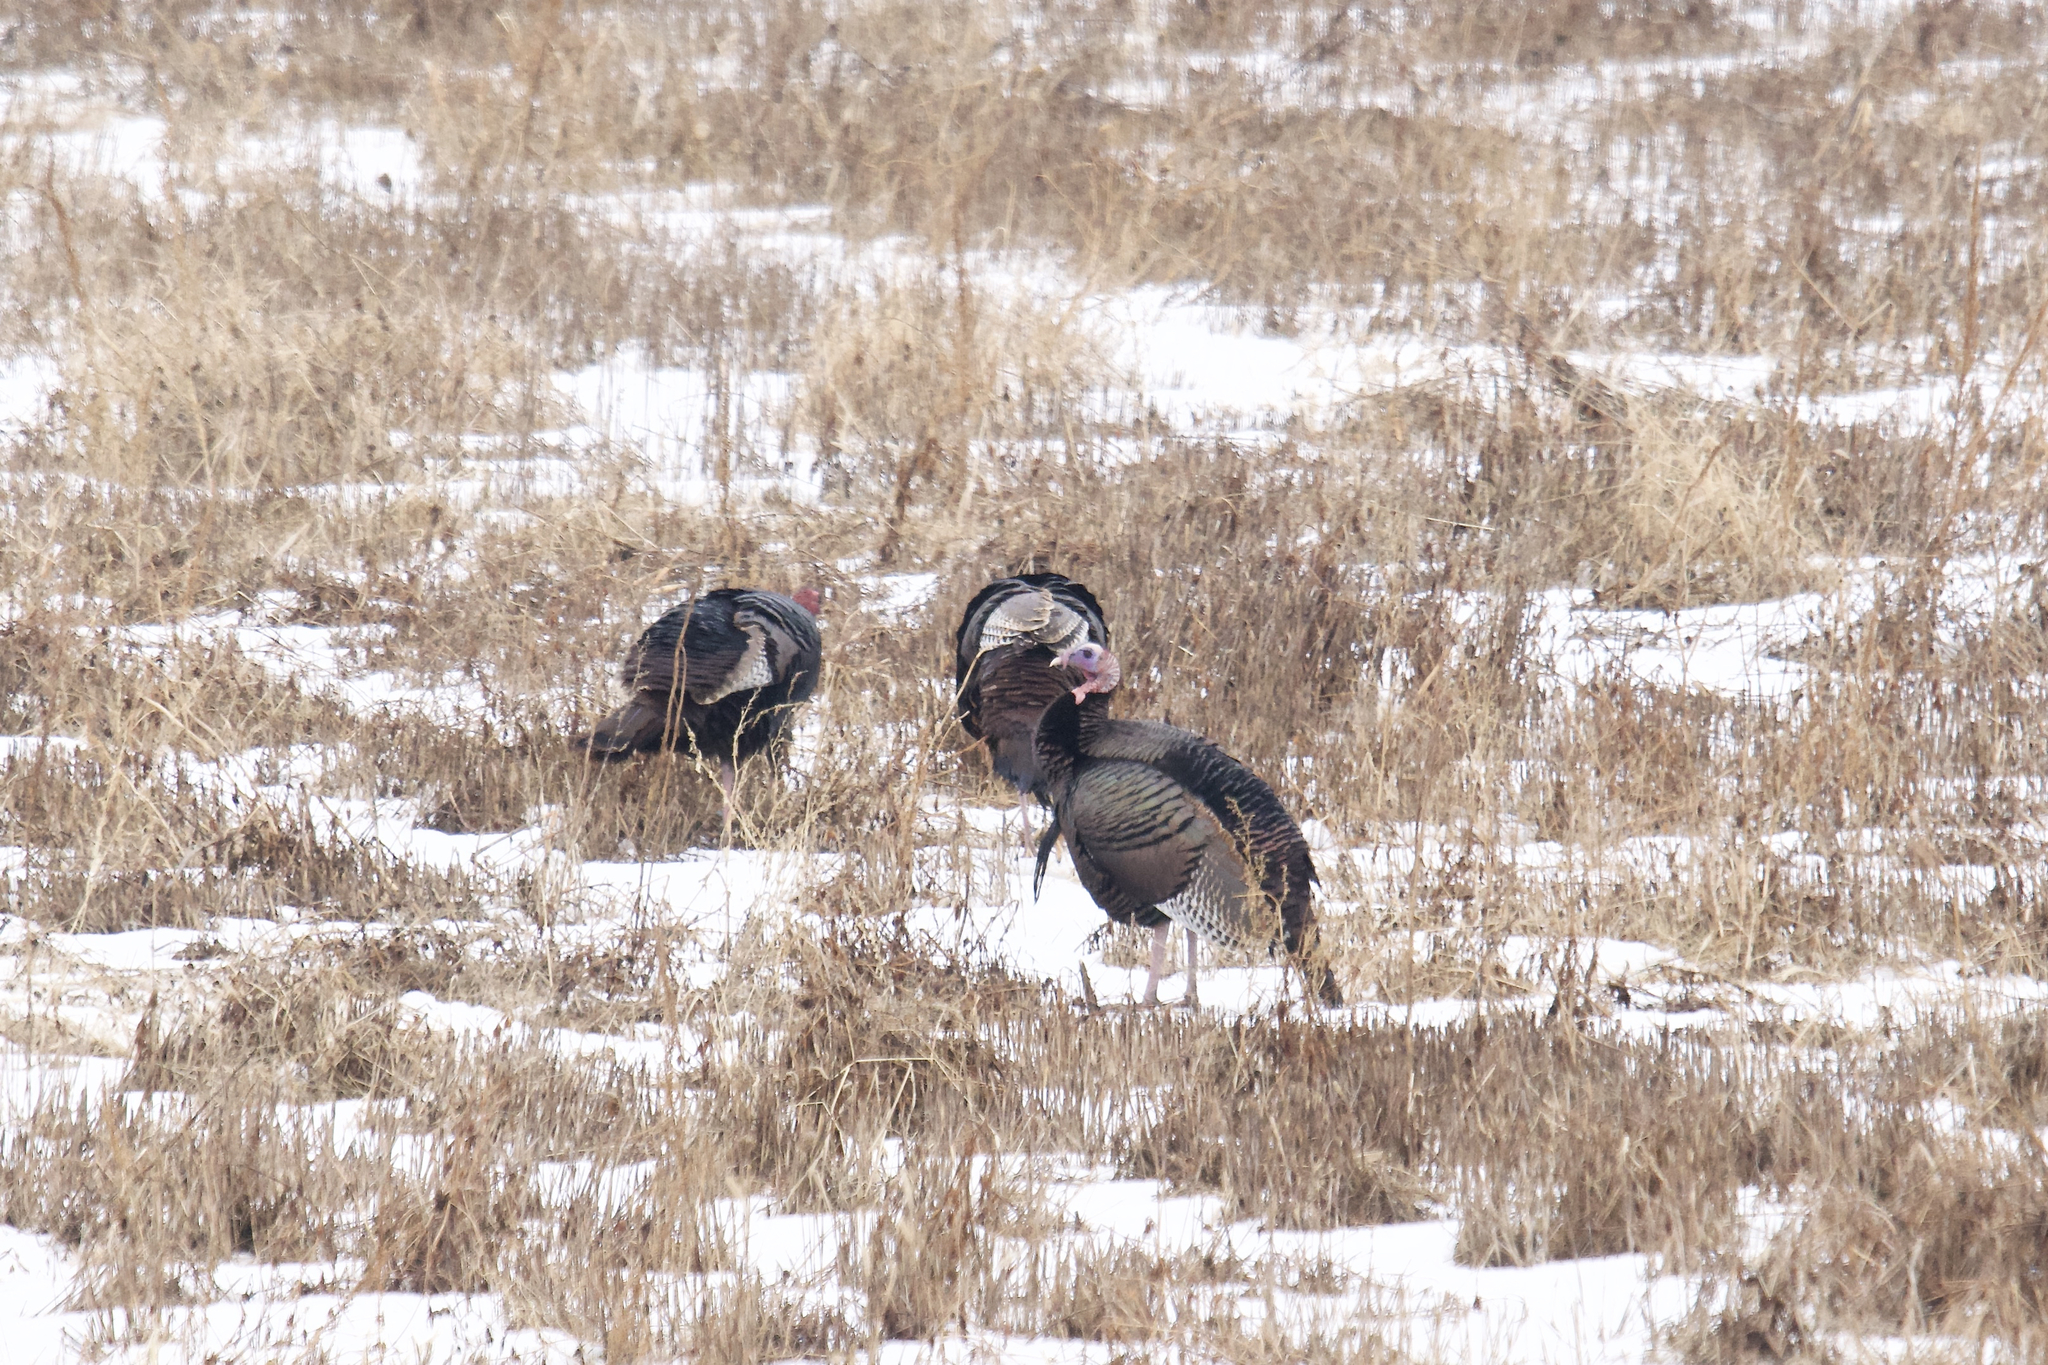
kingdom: Animalia
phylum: Chordata
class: Aves
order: Galliformes
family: Phasianidae
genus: Meleagris
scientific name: Meleagris gallopavo
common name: Wild turkey
